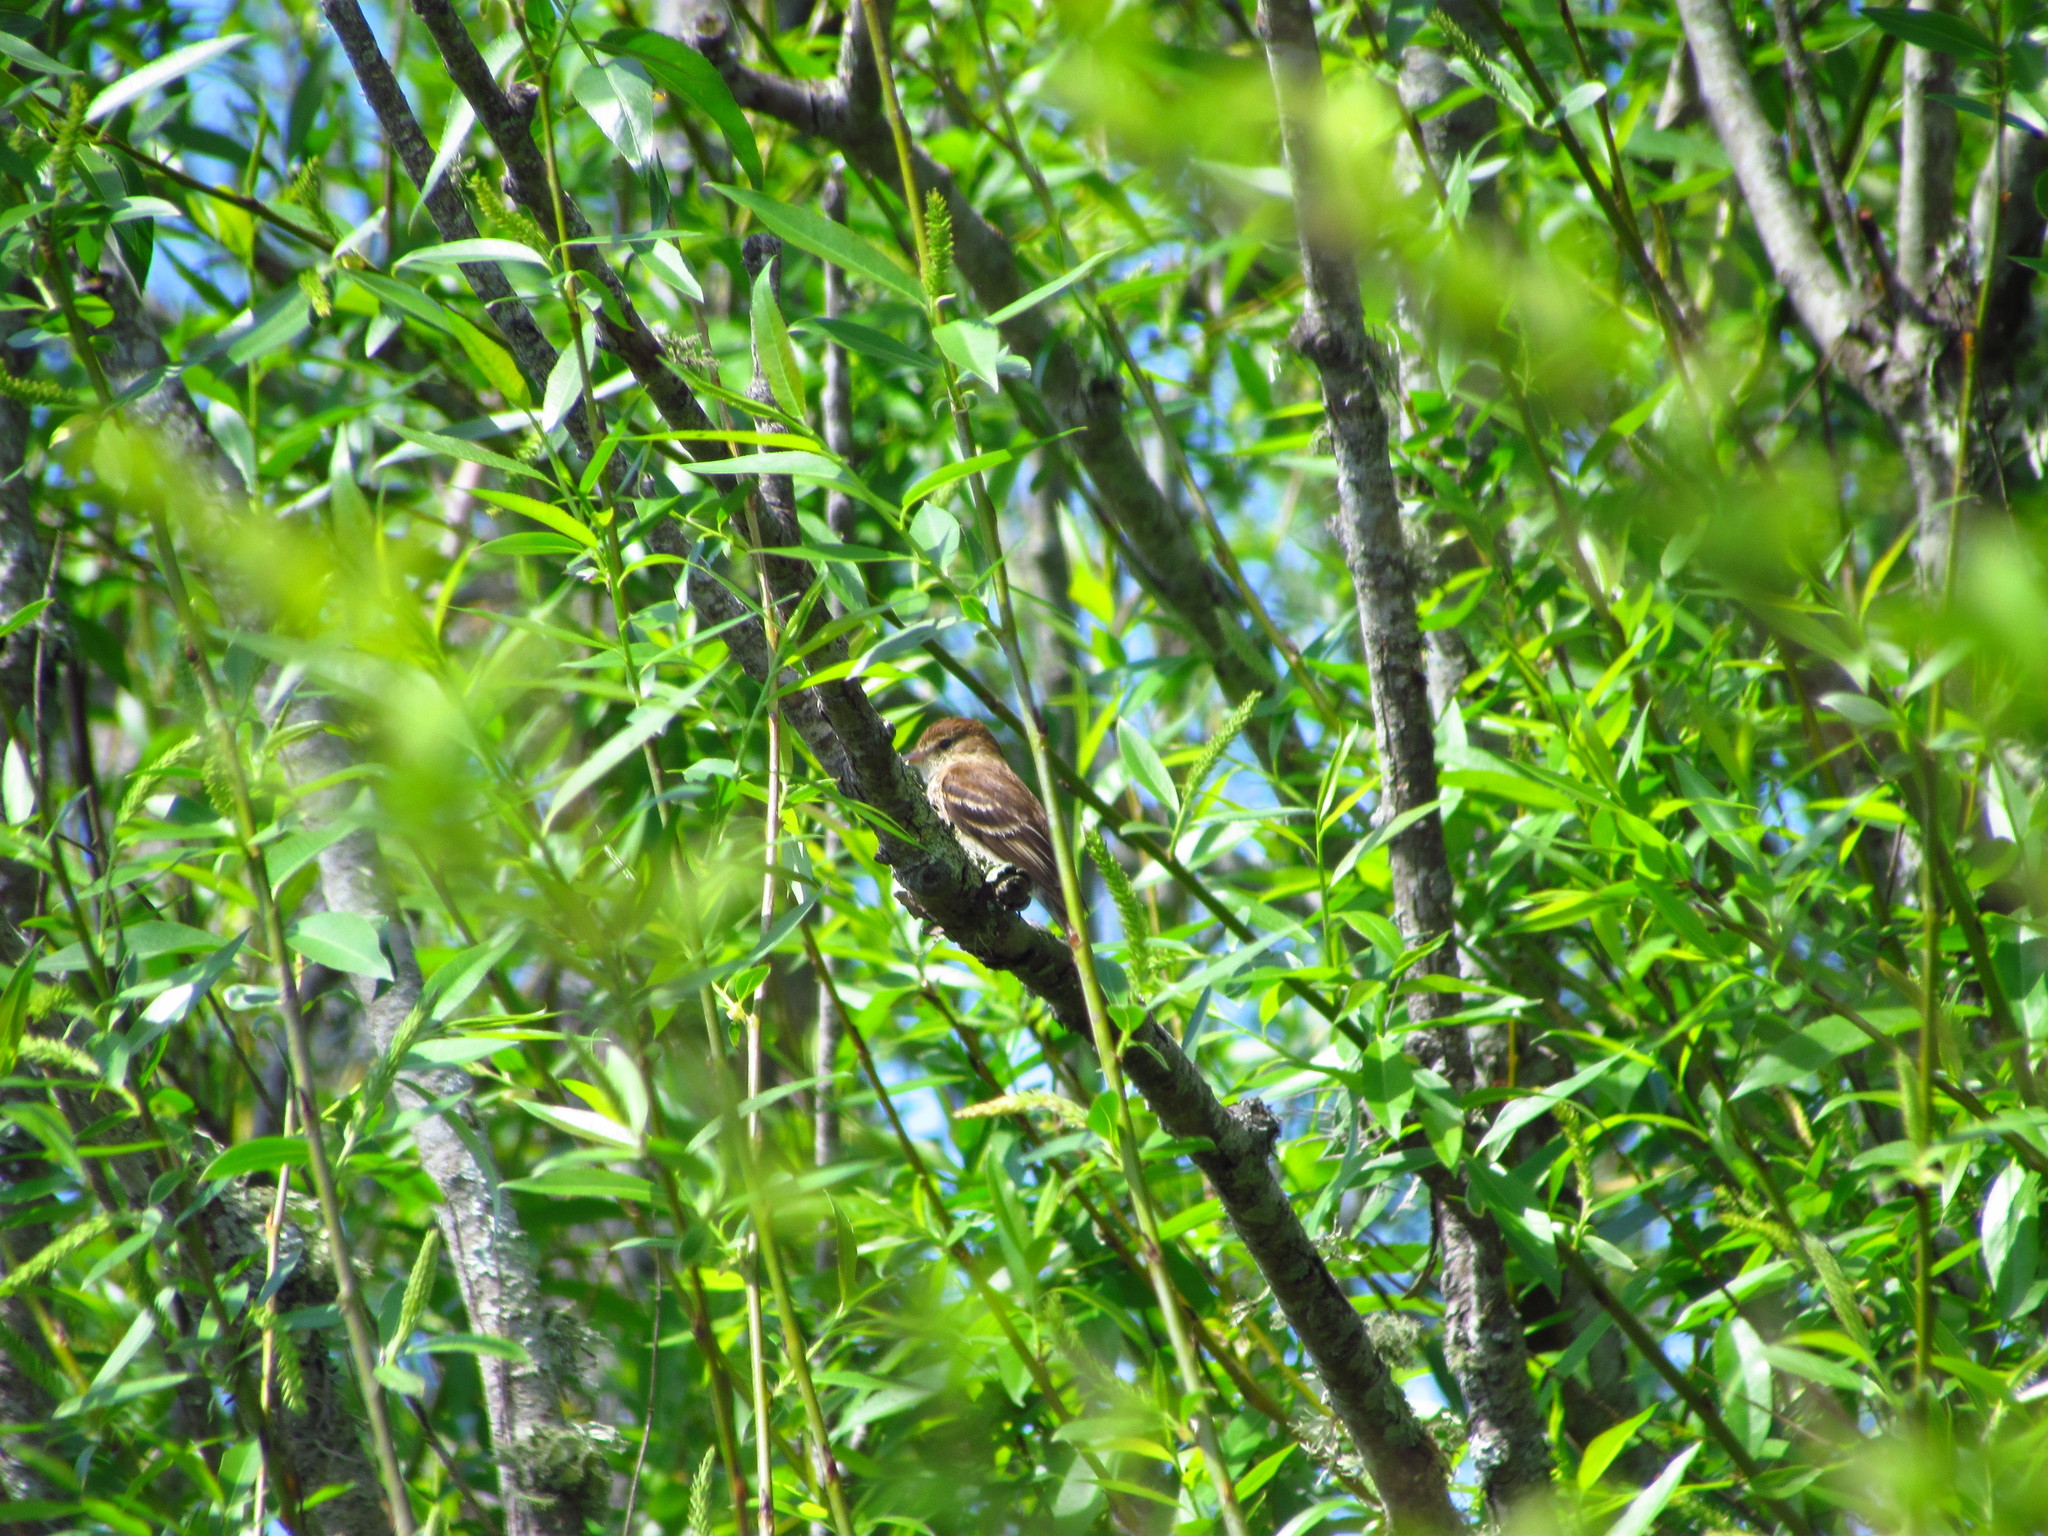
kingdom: Animalia
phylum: Chordata
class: Aves
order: Passeriformes
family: Tyrannidae
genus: Myiophobus
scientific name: Myiophobus fasciatus
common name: Bran-colored flycatcher
